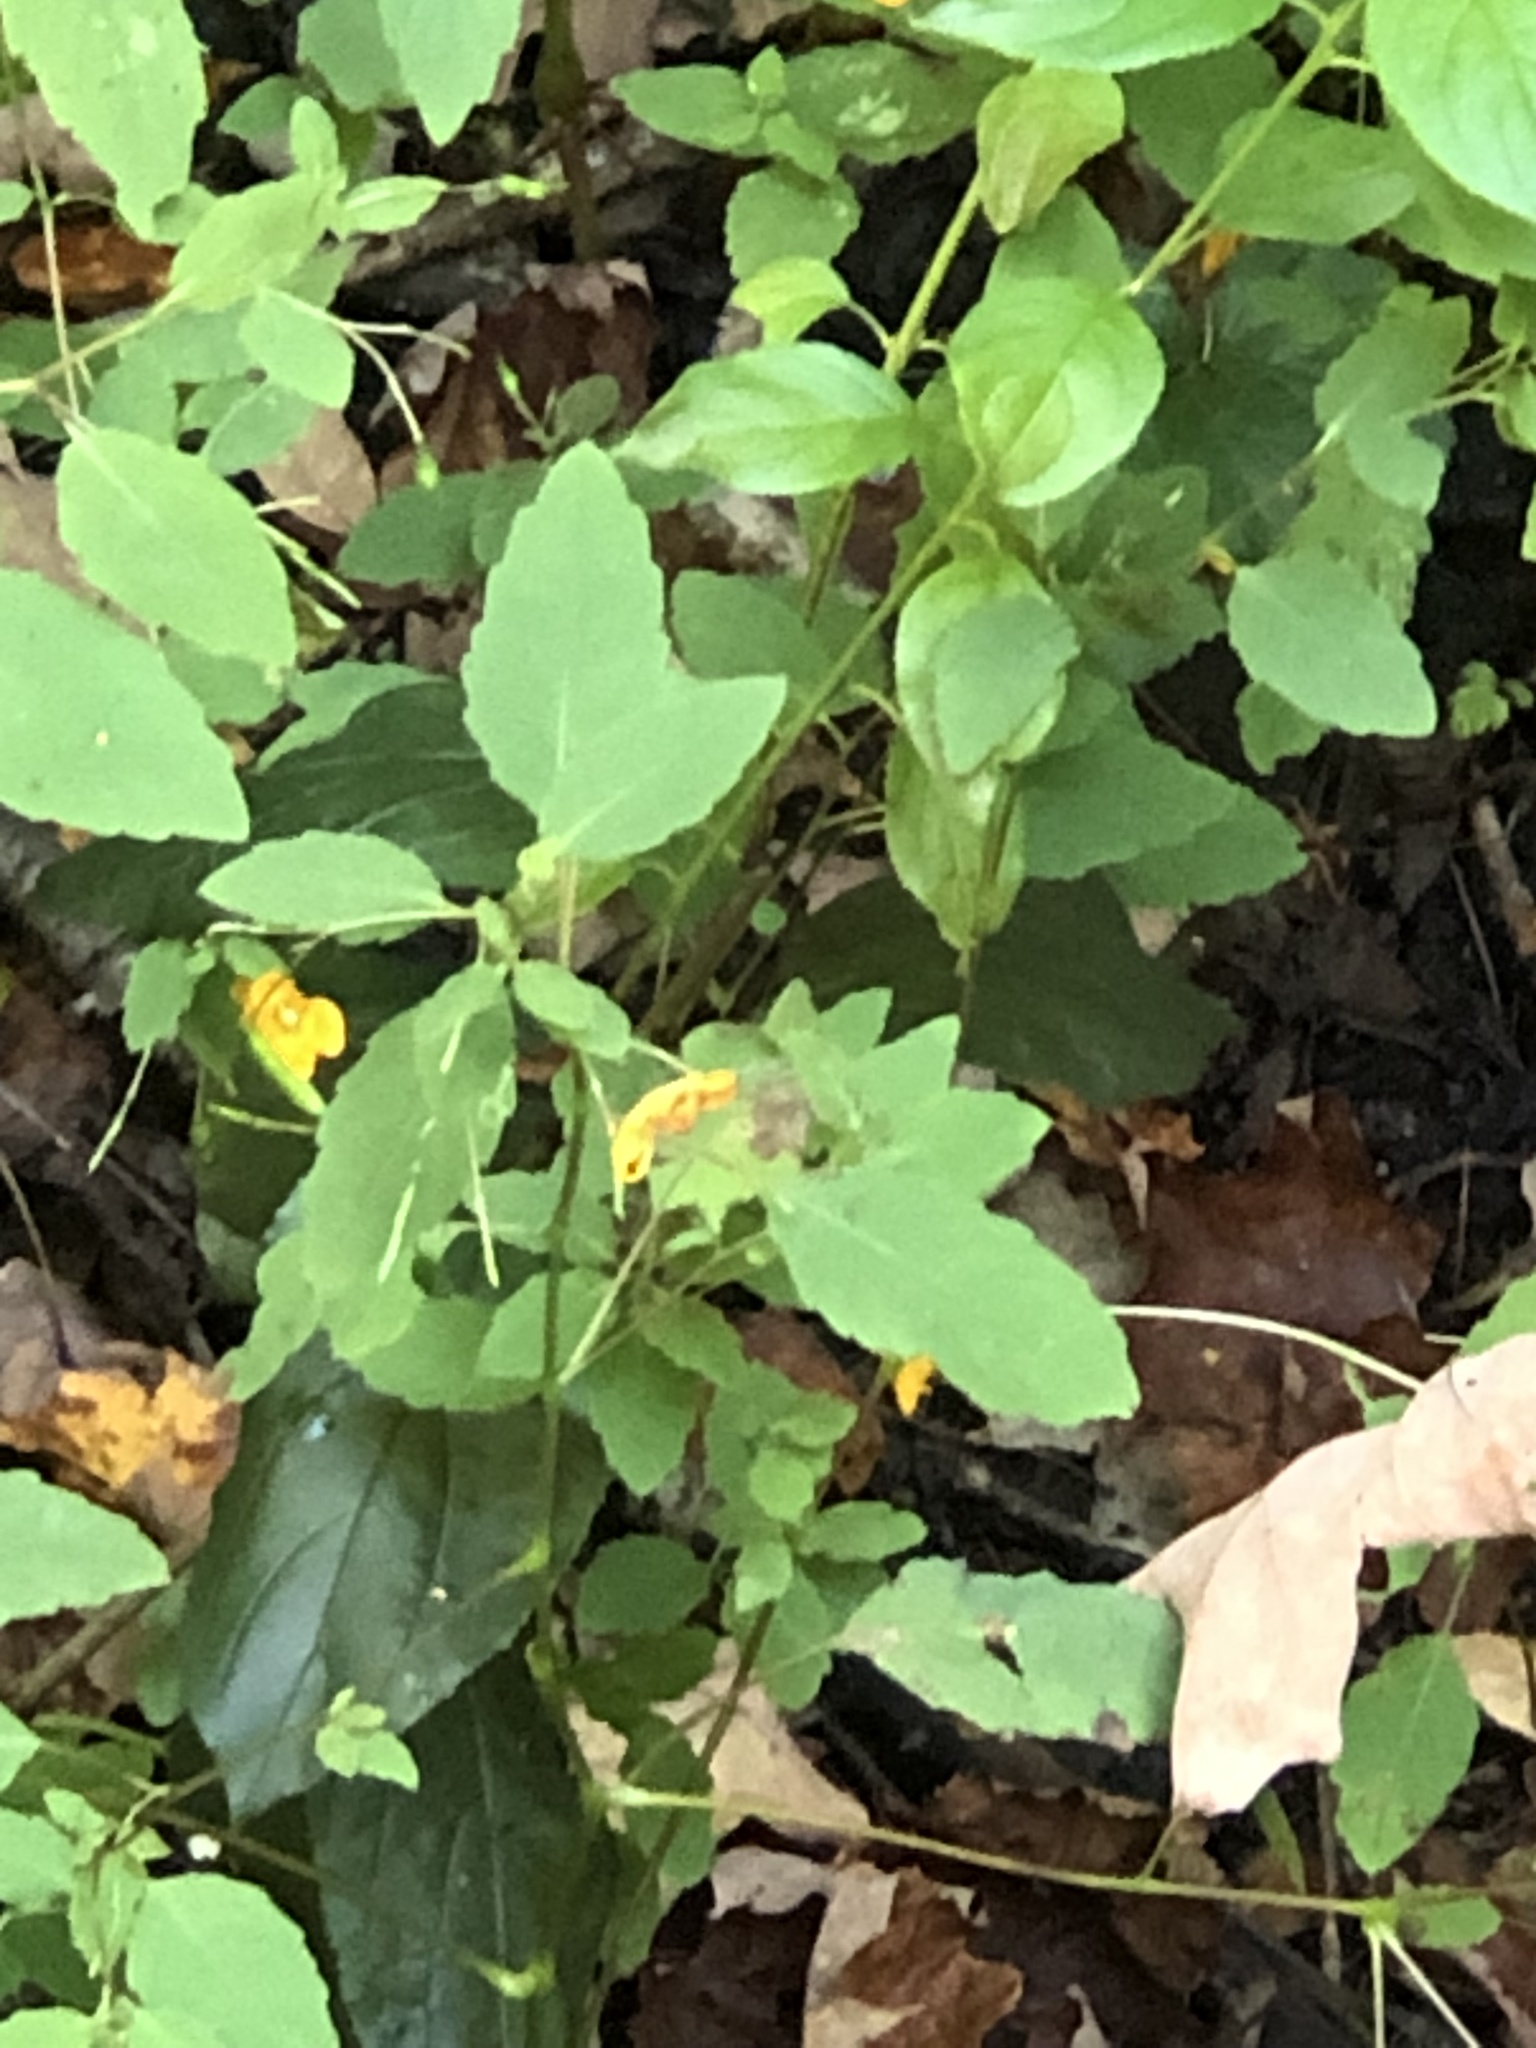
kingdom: Plantae
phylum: Tracheophyta
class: Magnoliopsida
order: Ericales
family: Balsaminaceae
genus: Impatiens
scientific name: Impatiens capensis
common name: Orange balsam
